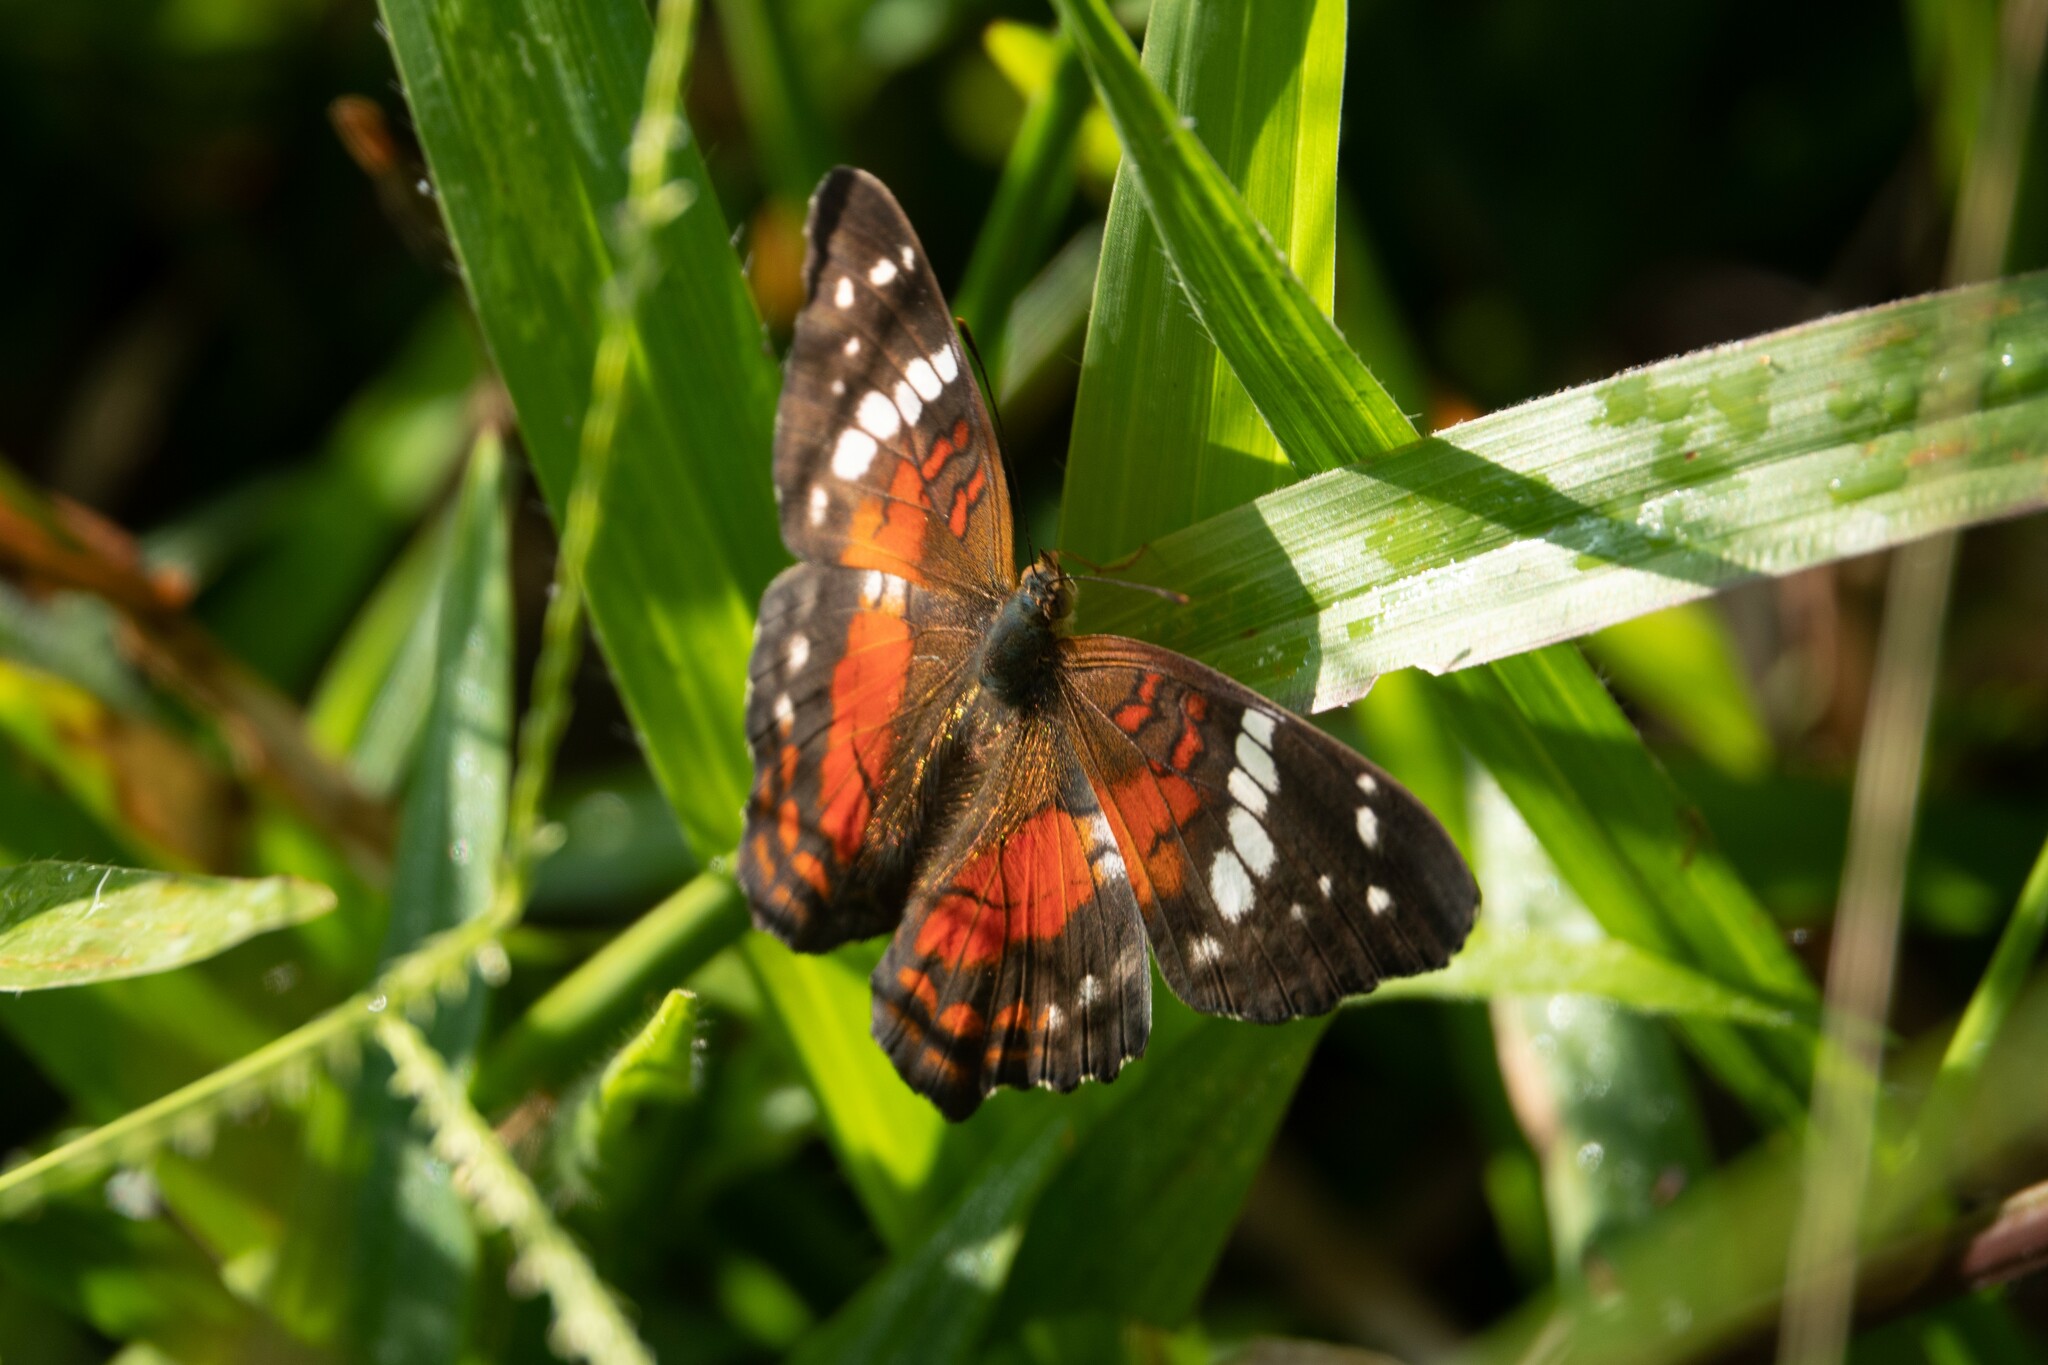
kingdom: Animalia
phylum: Arthropoda
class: Insecta
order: Lepidoptera
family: Nymphalidae
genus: Anartia
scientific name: Anartia amathea
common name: Red peacock
